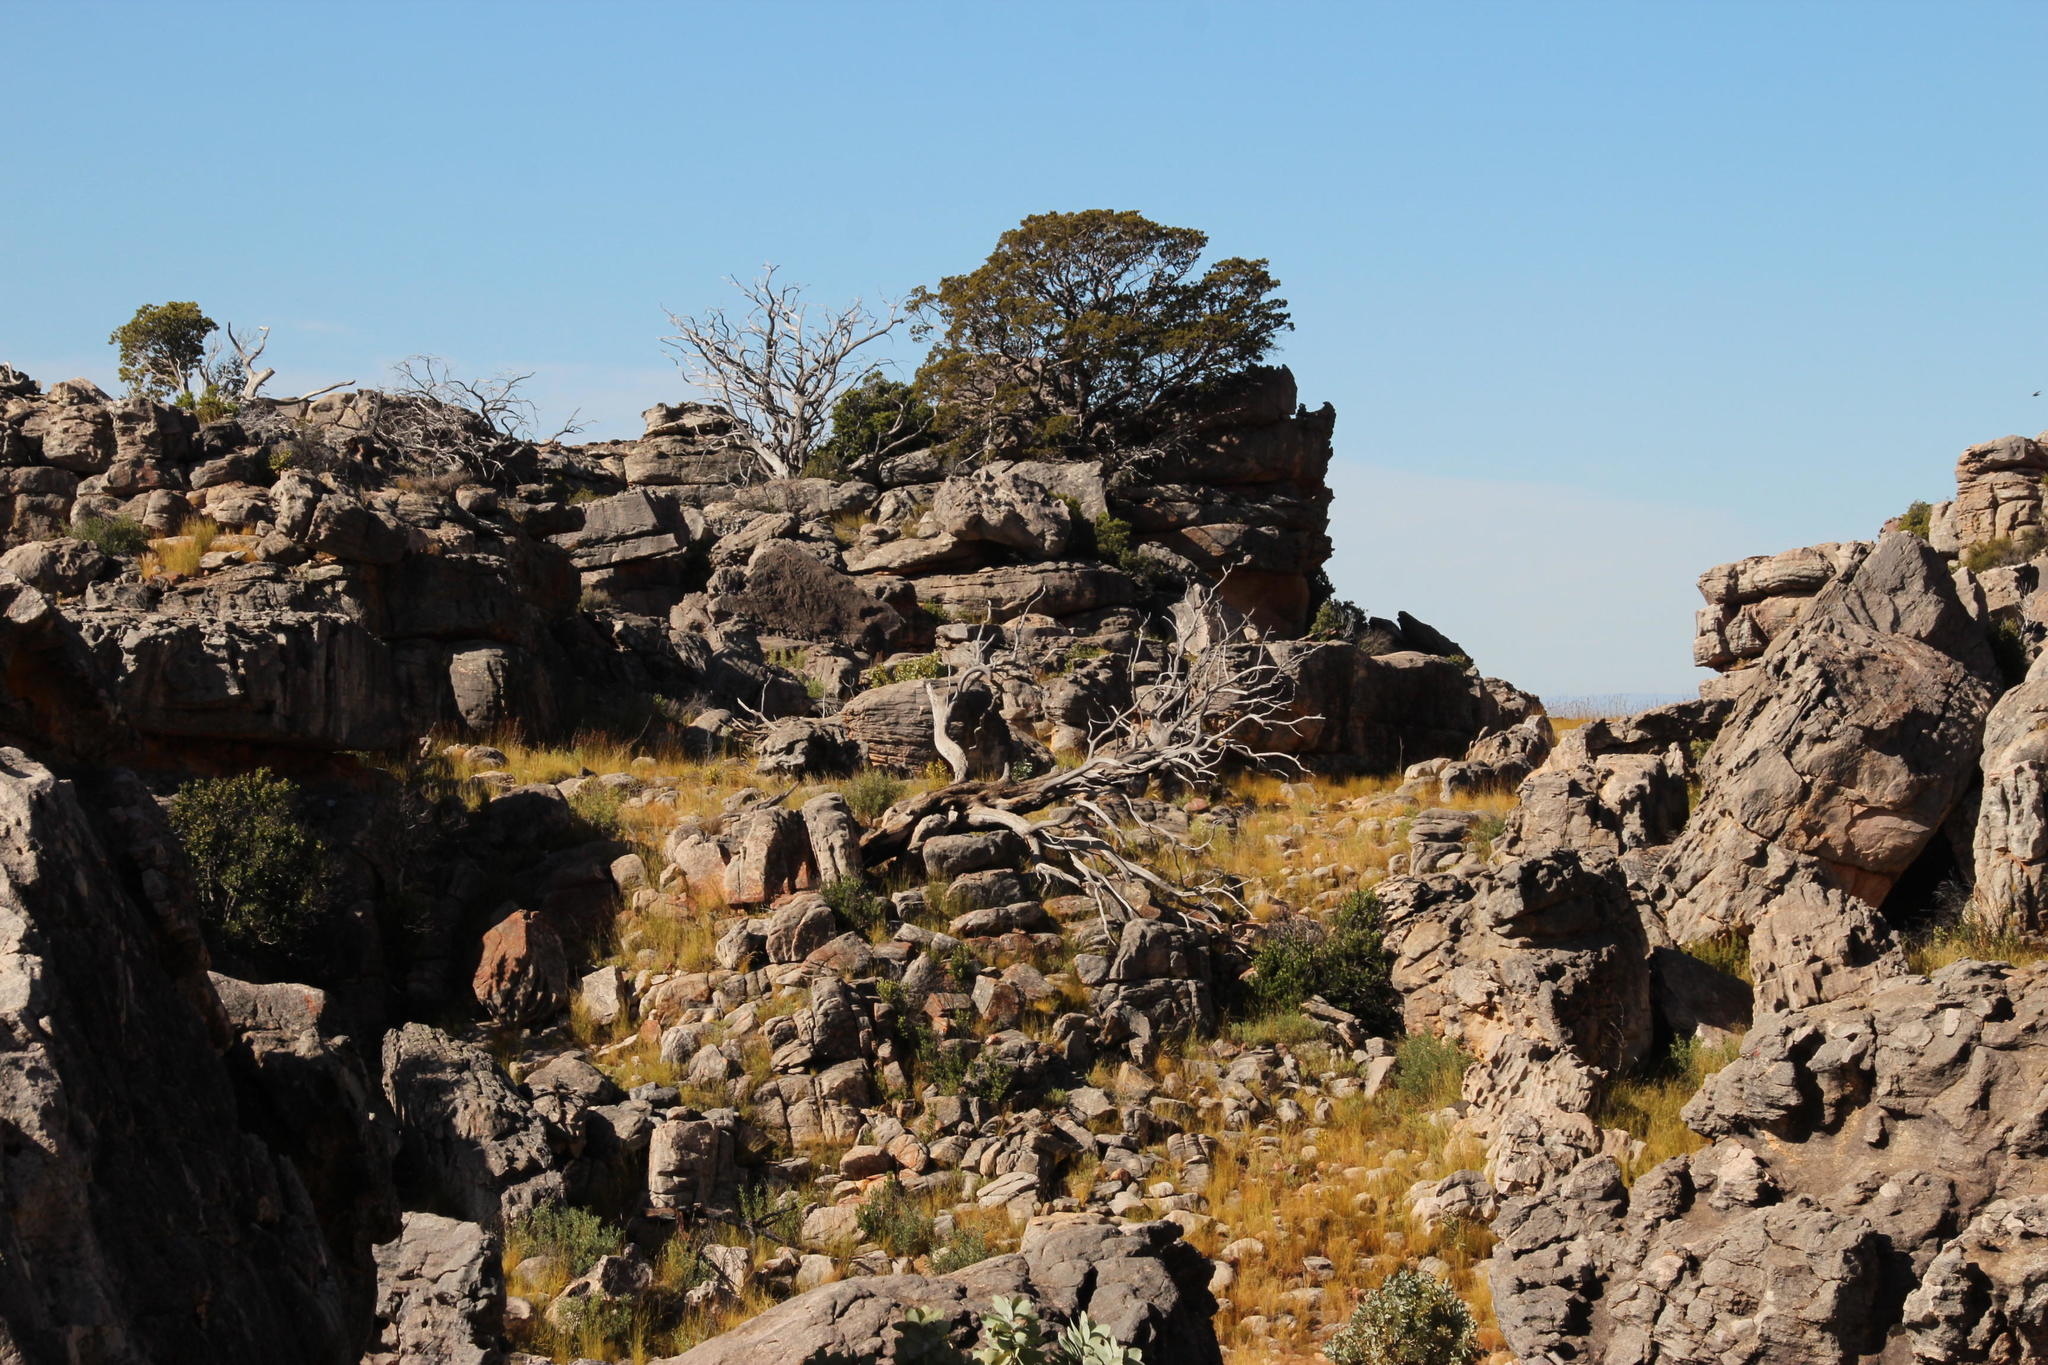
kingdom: Plantae
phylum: Tracheophyta
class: Pinopsida
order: Pinales
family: Cupressaceae
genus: Widdringtonia
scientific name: Widdringtonia nodiflora
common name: Cape cypress
